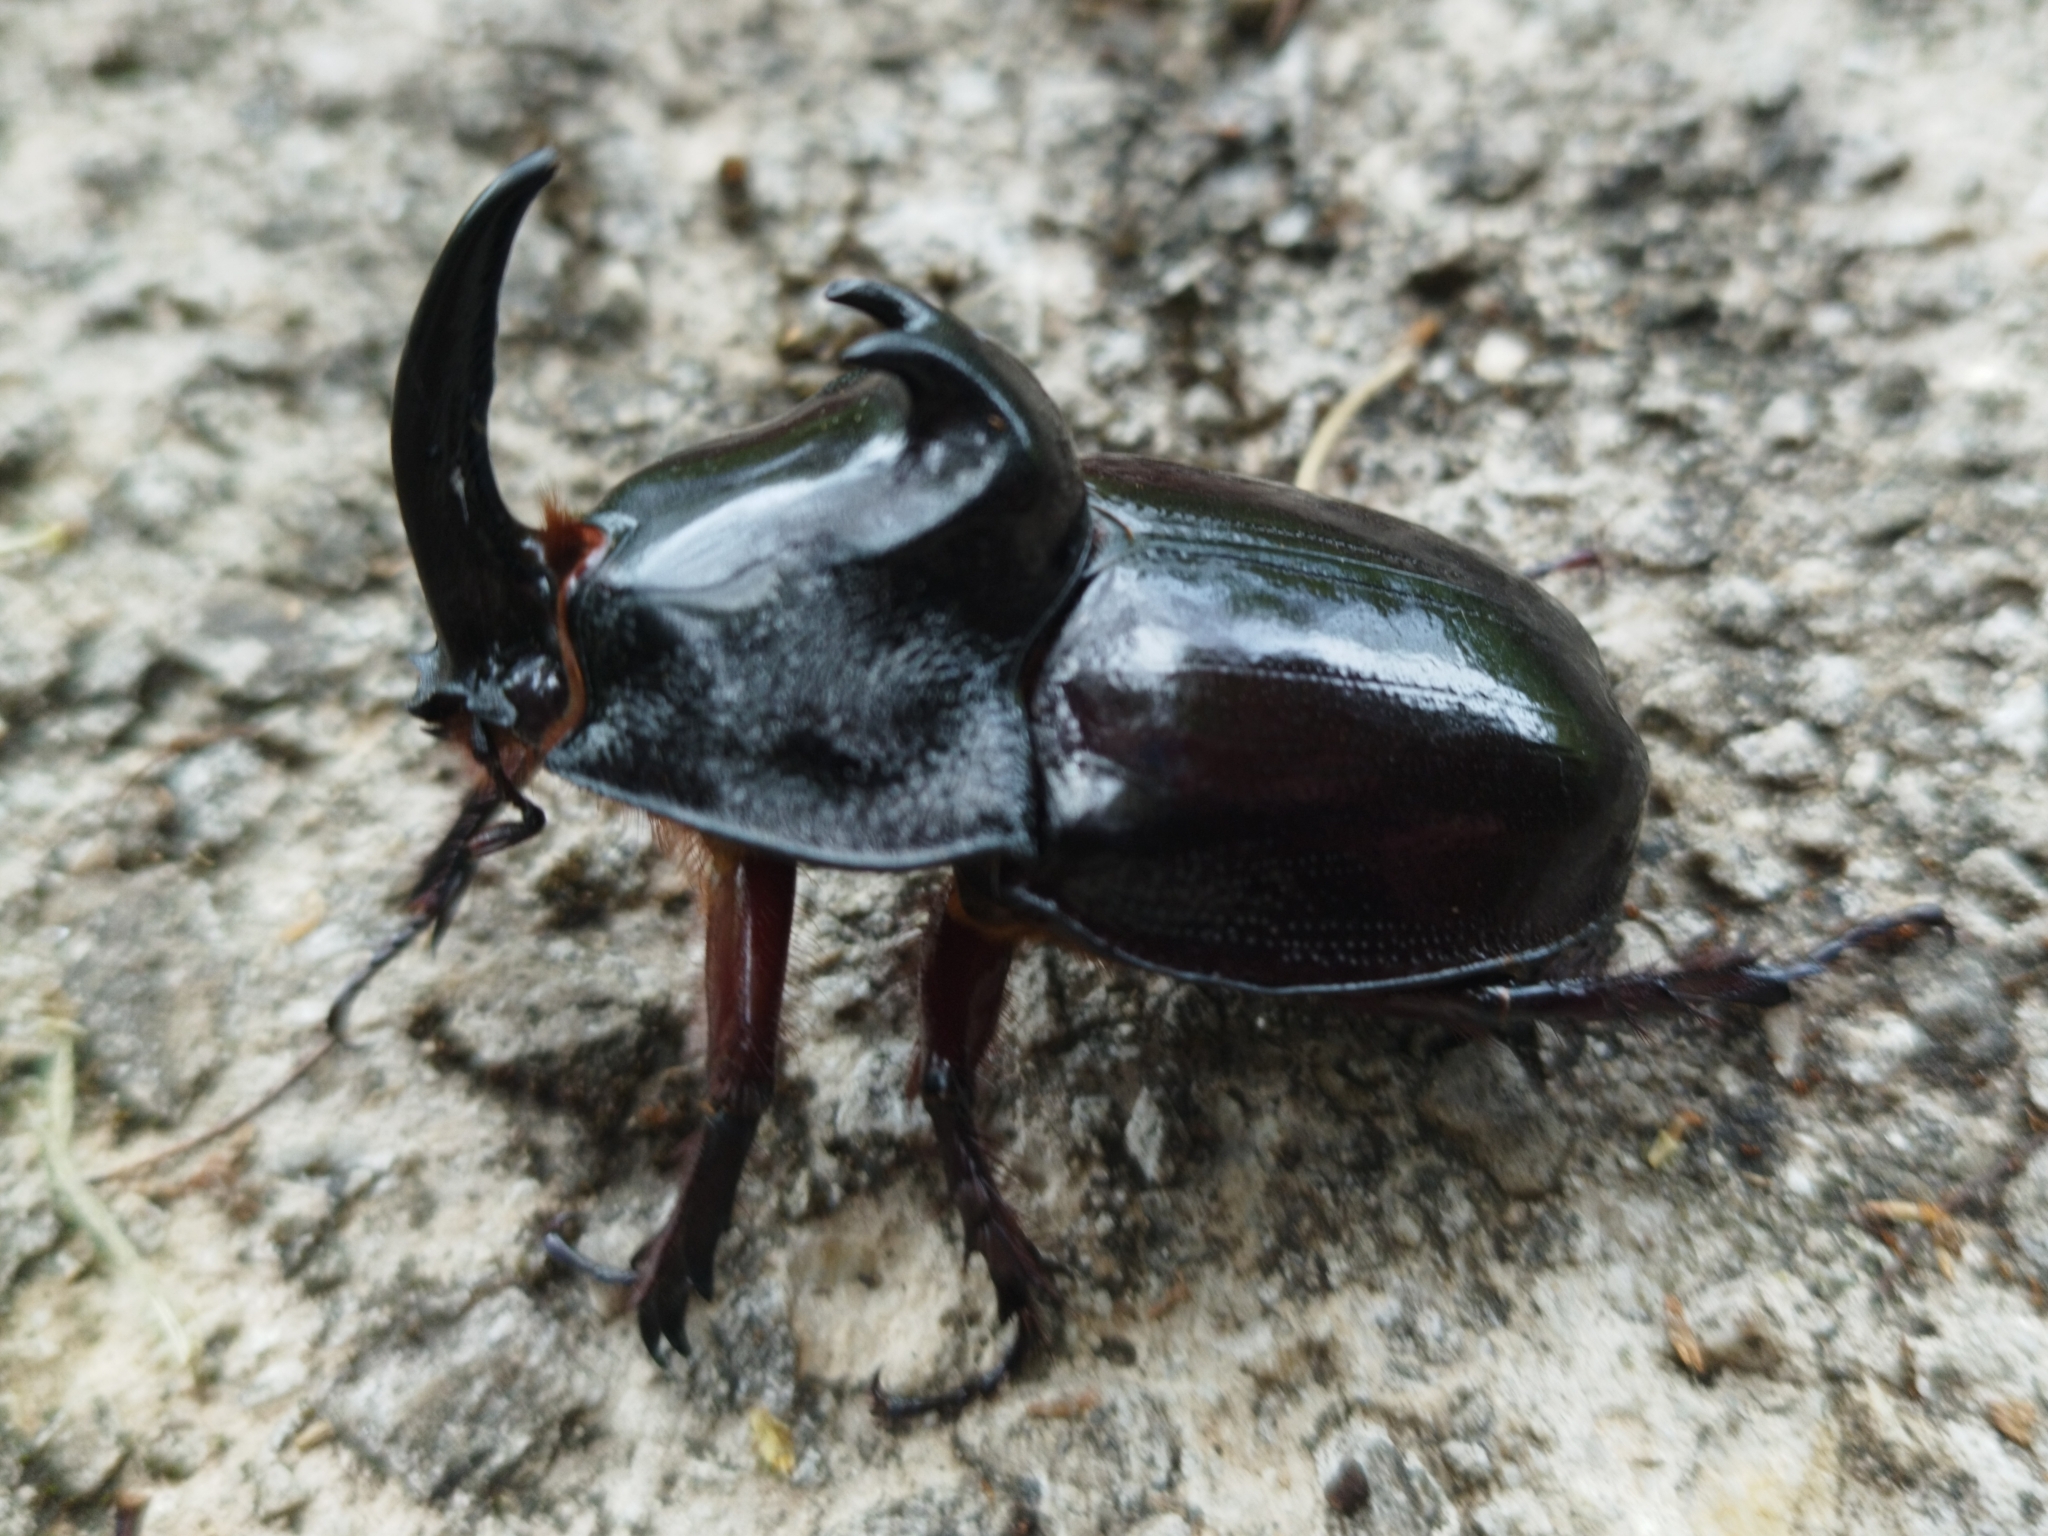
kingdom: Animalia
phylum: Arthropoda
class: Insecta
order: Coleoptera
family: Scarabaeidae
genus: Enema
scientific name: Enema pan
